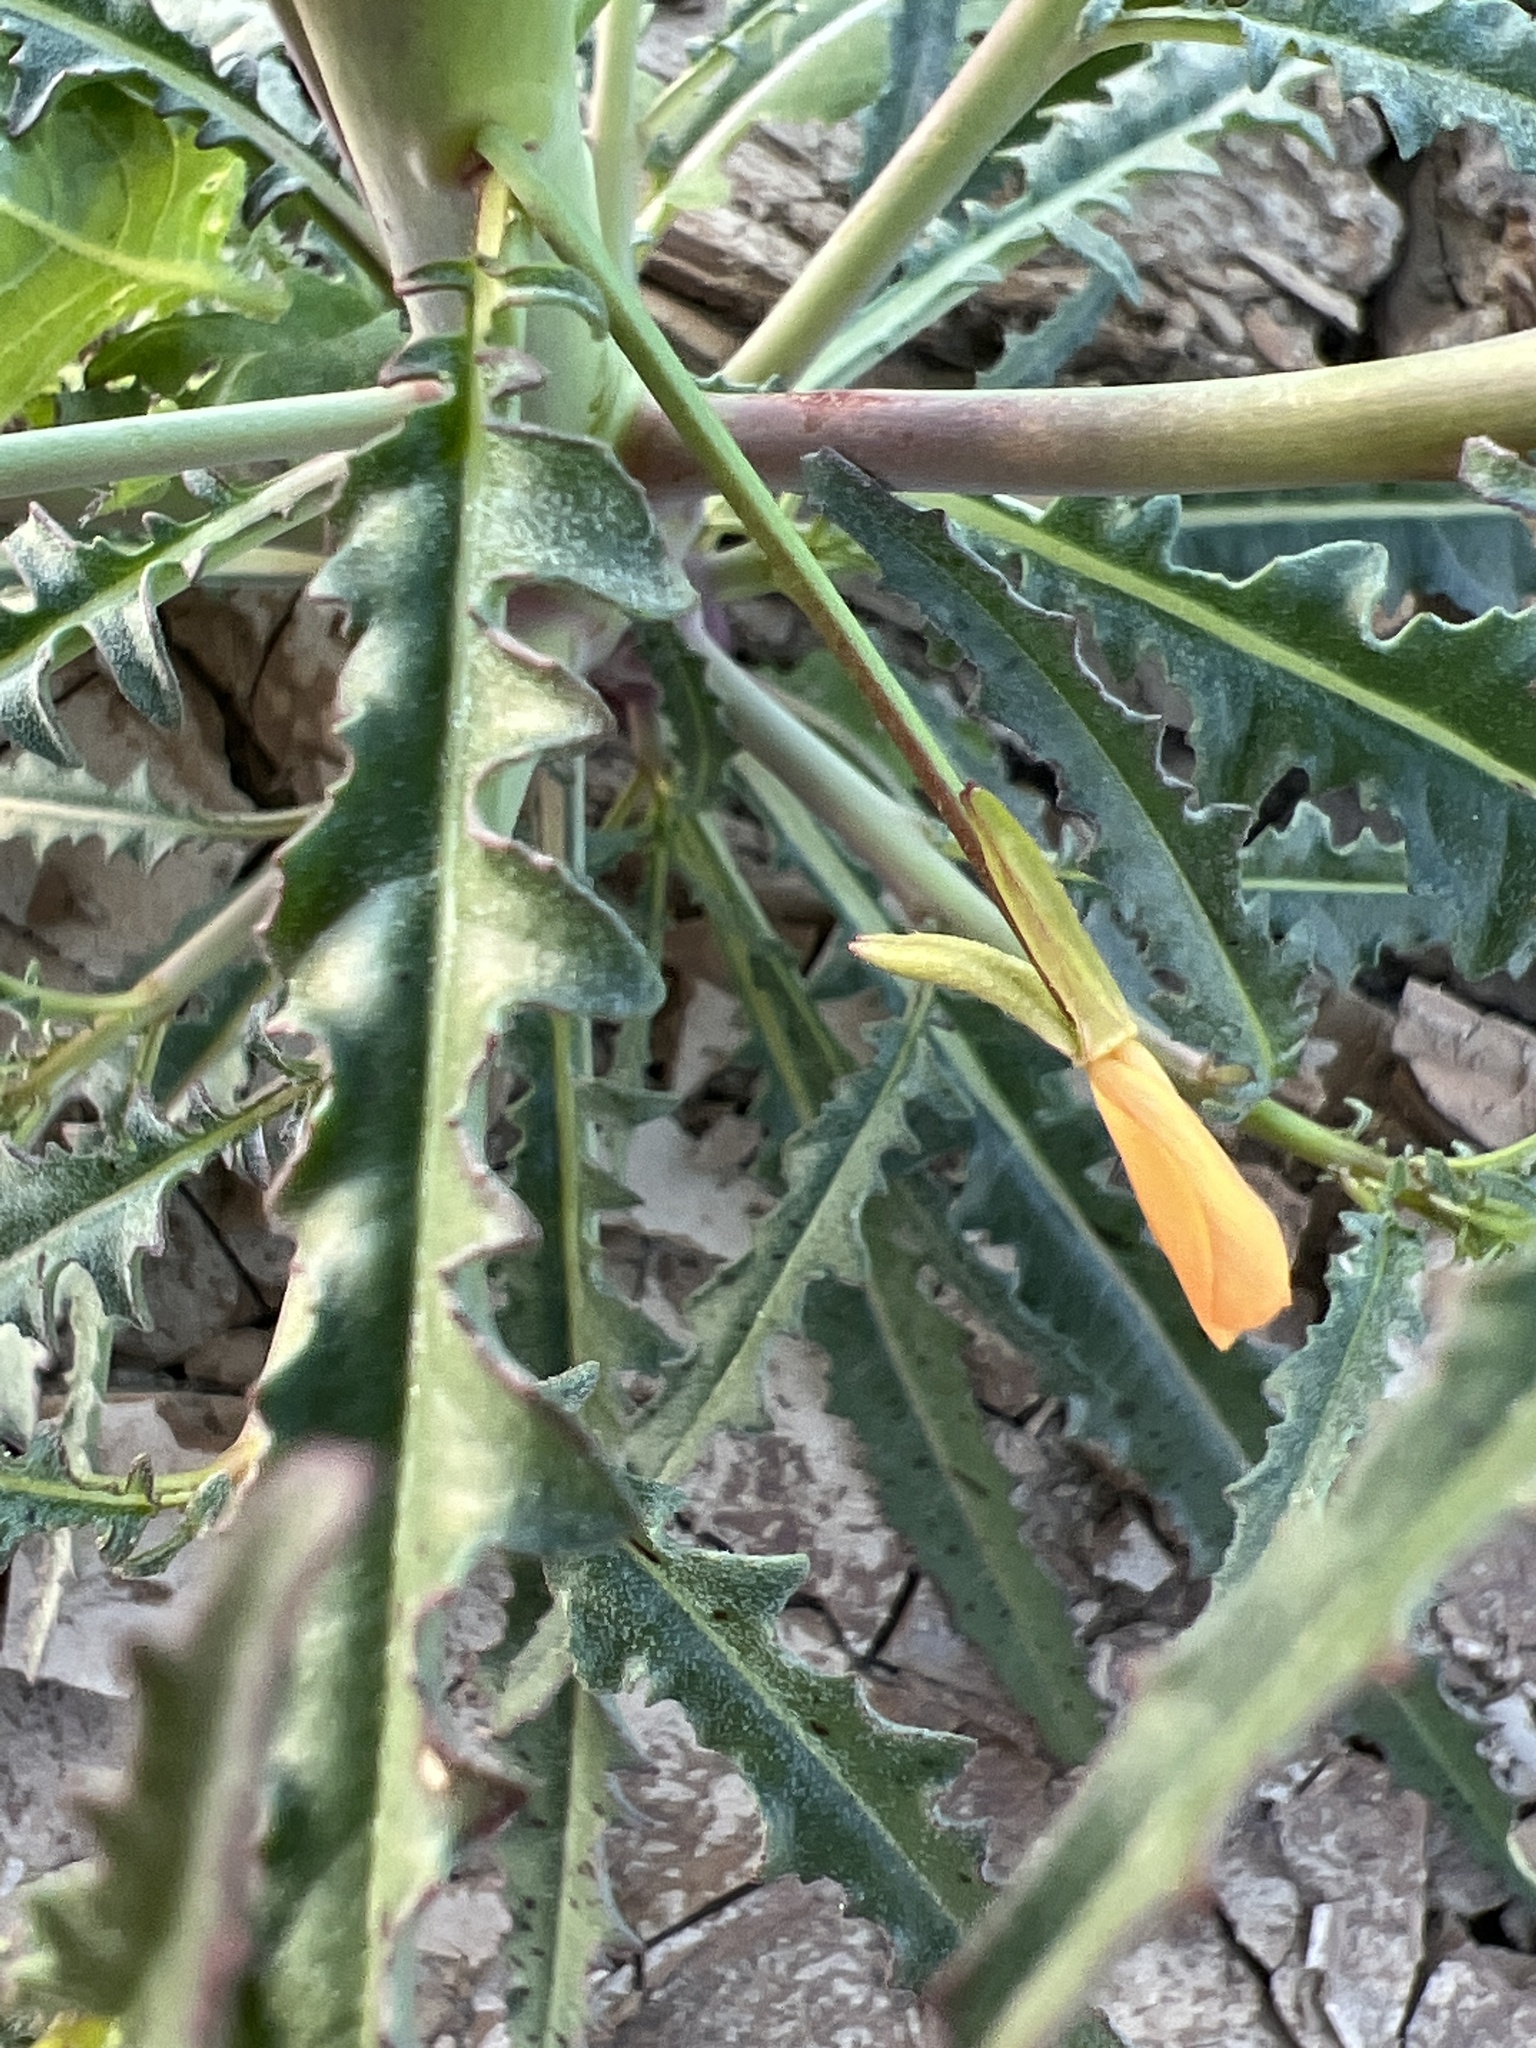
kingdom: Plantae
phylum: Tracheophyta
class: Magnoliopsida
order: Myrtales
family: Onagraceae
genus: Eulobus
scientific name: Eulobus californicus
